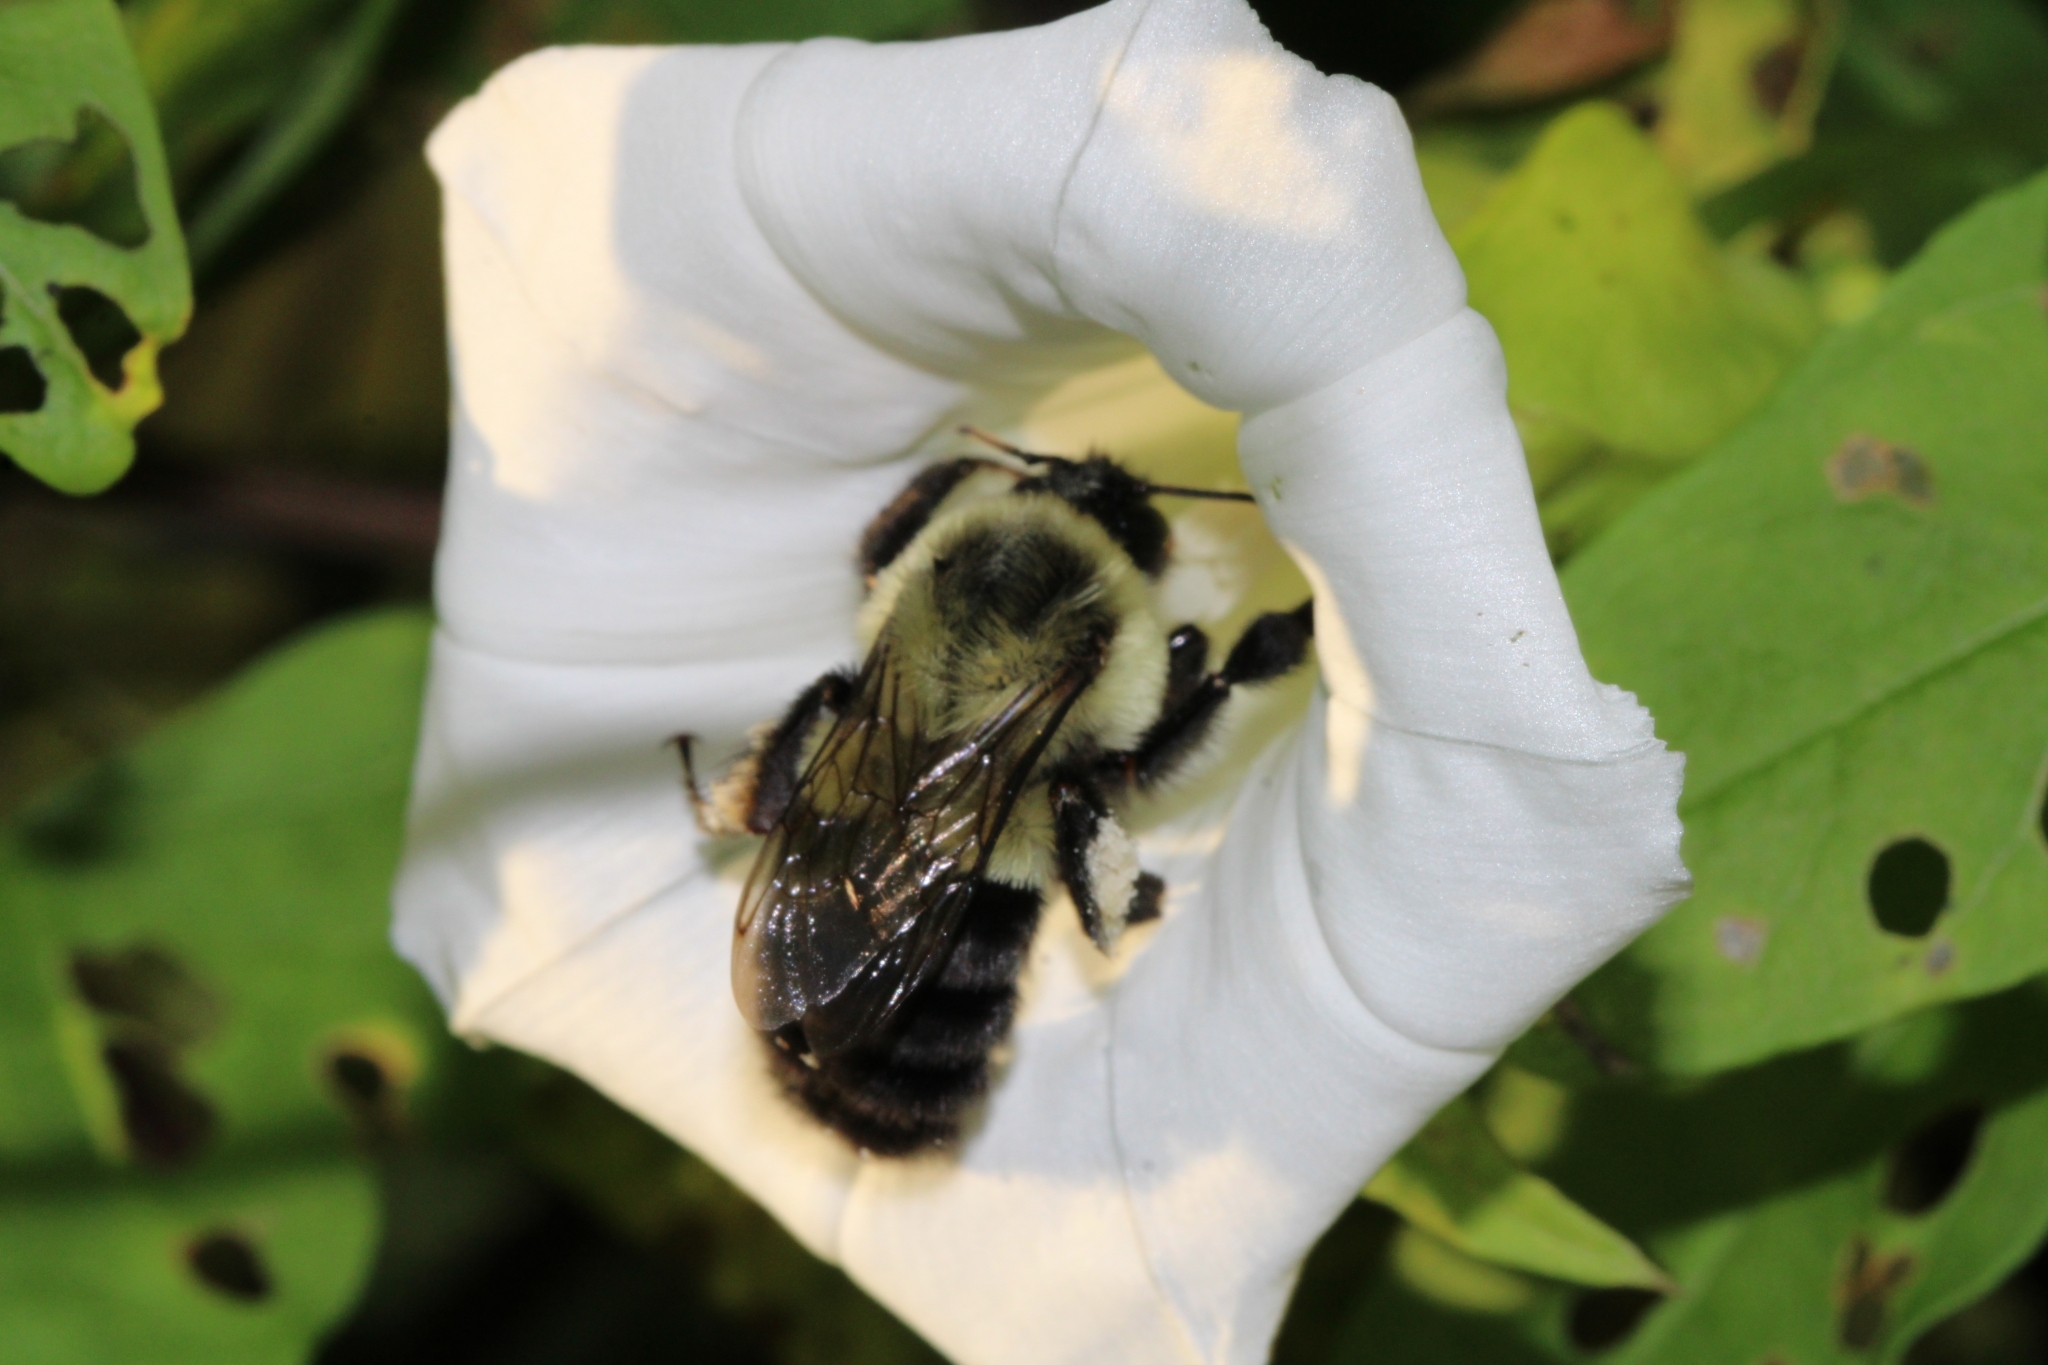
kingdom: Animalia
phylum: Arthropoda
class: Insecta
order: Hymenoptera
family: Apidae
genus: Bombus
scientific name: Bombus impatiens
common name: Common eastern bumble bee
